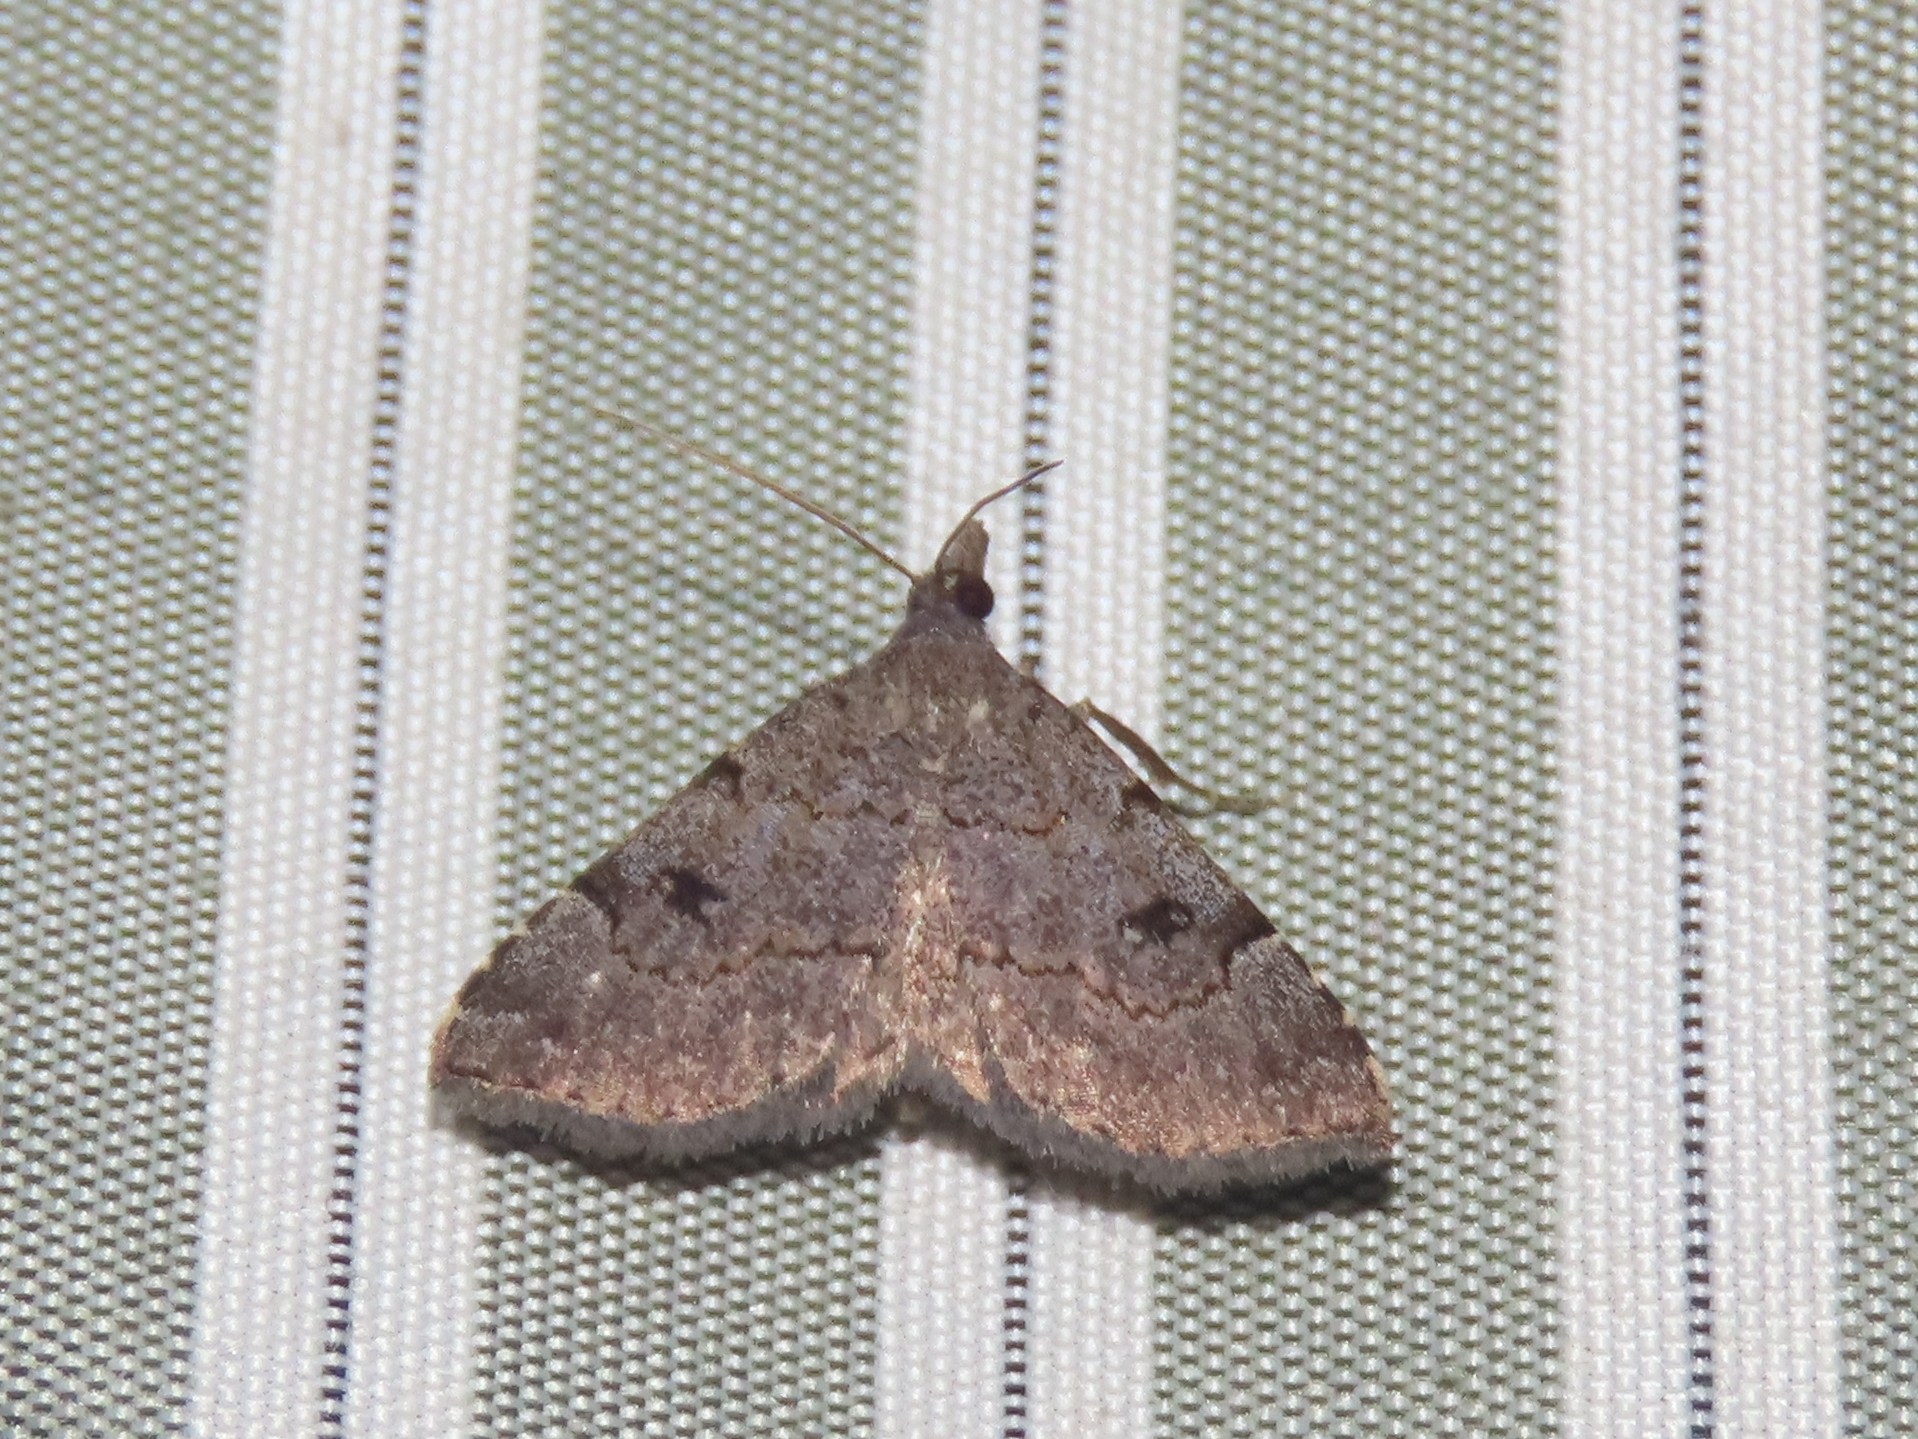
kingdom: Animalia
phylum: Arthropoda
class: Insecta
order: Lepidoptera
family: Erebidae
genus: Nychioptera
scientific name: Nychioptera noctuidalis
